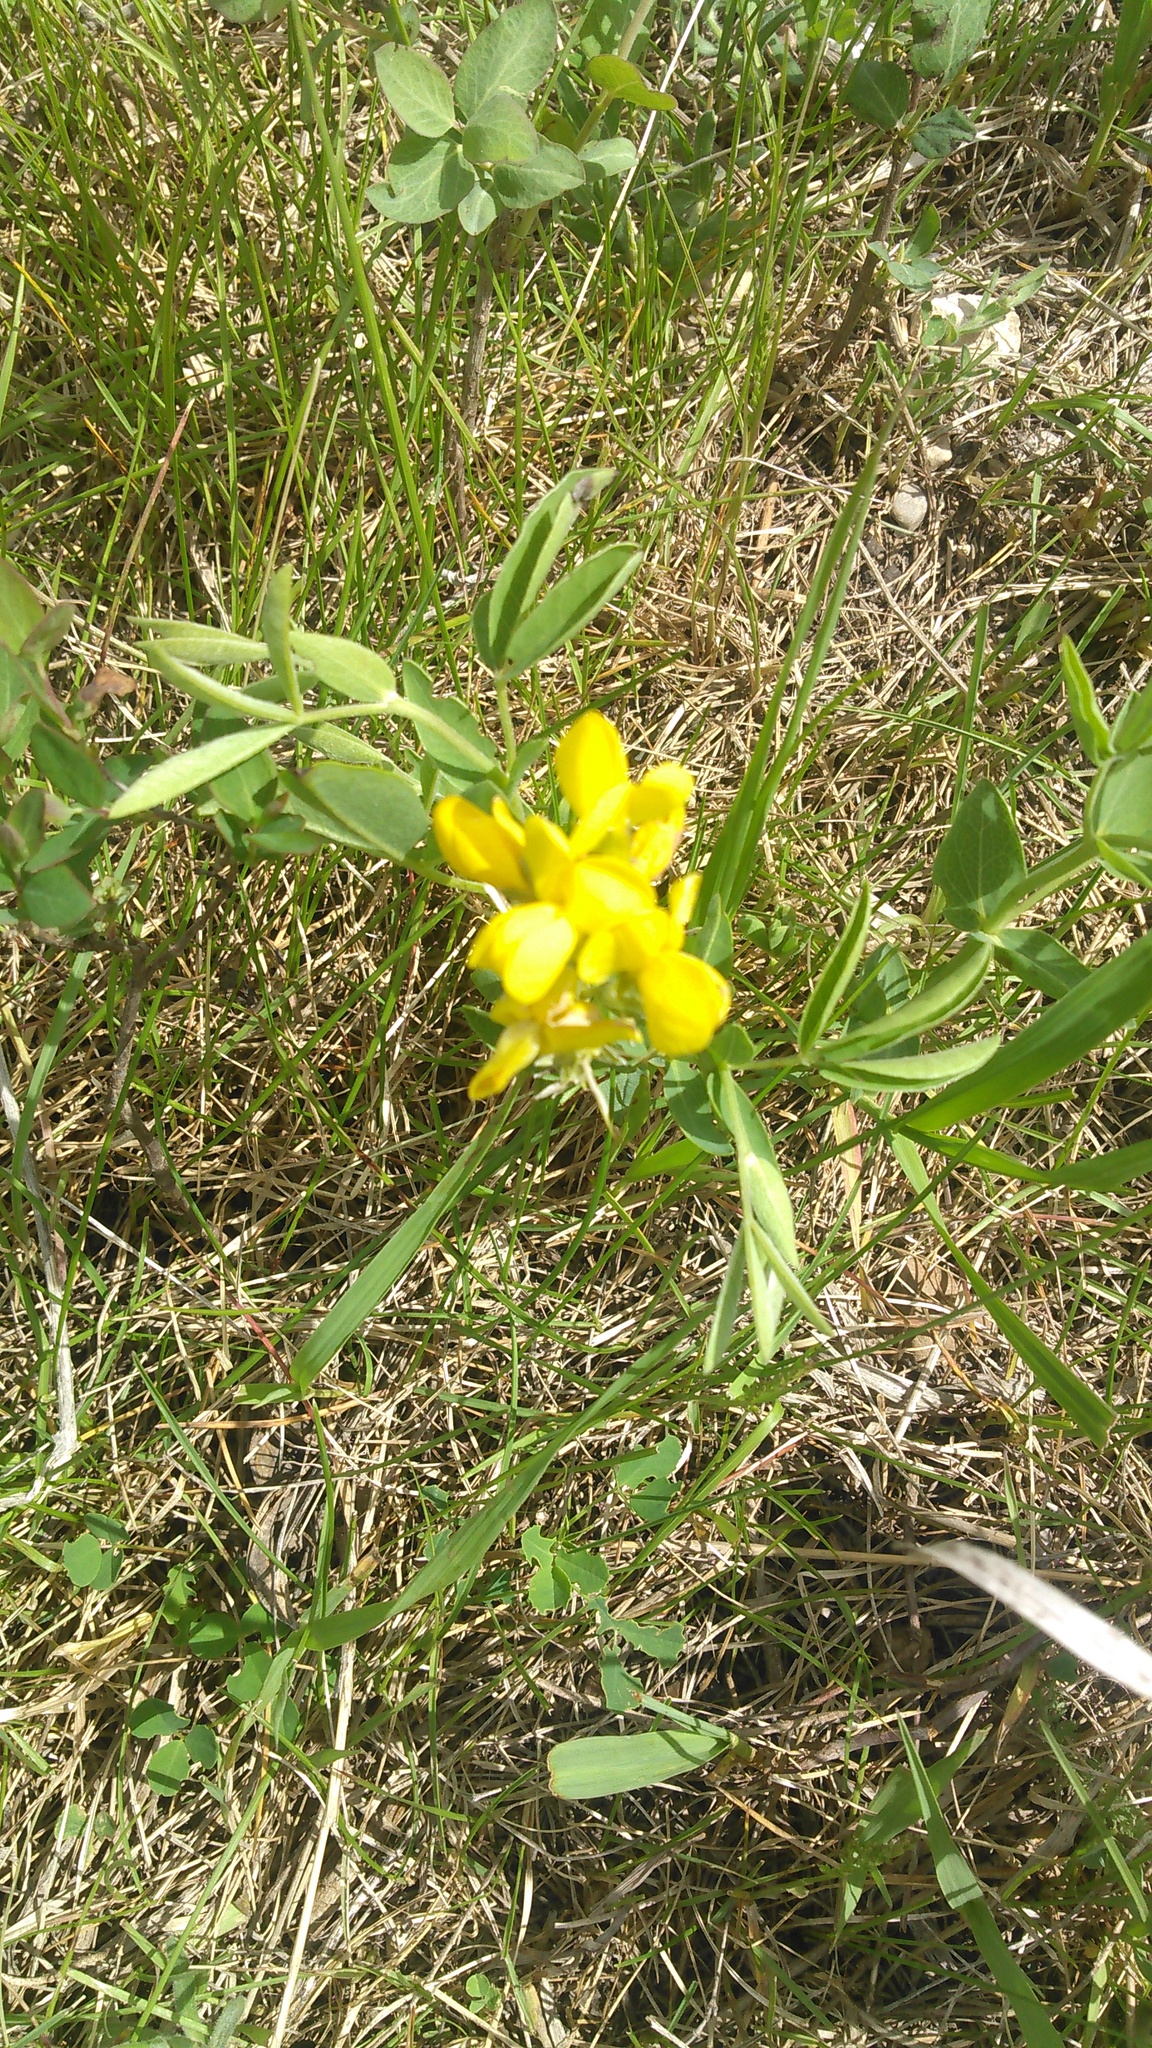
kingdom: Plantae
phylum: Tracheophyta
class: Magnoliopsida
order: Fabales
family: Fabaceae
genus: Thermopsis
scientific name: Thermopsis rhombifolia
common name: Circle-pod-pea
